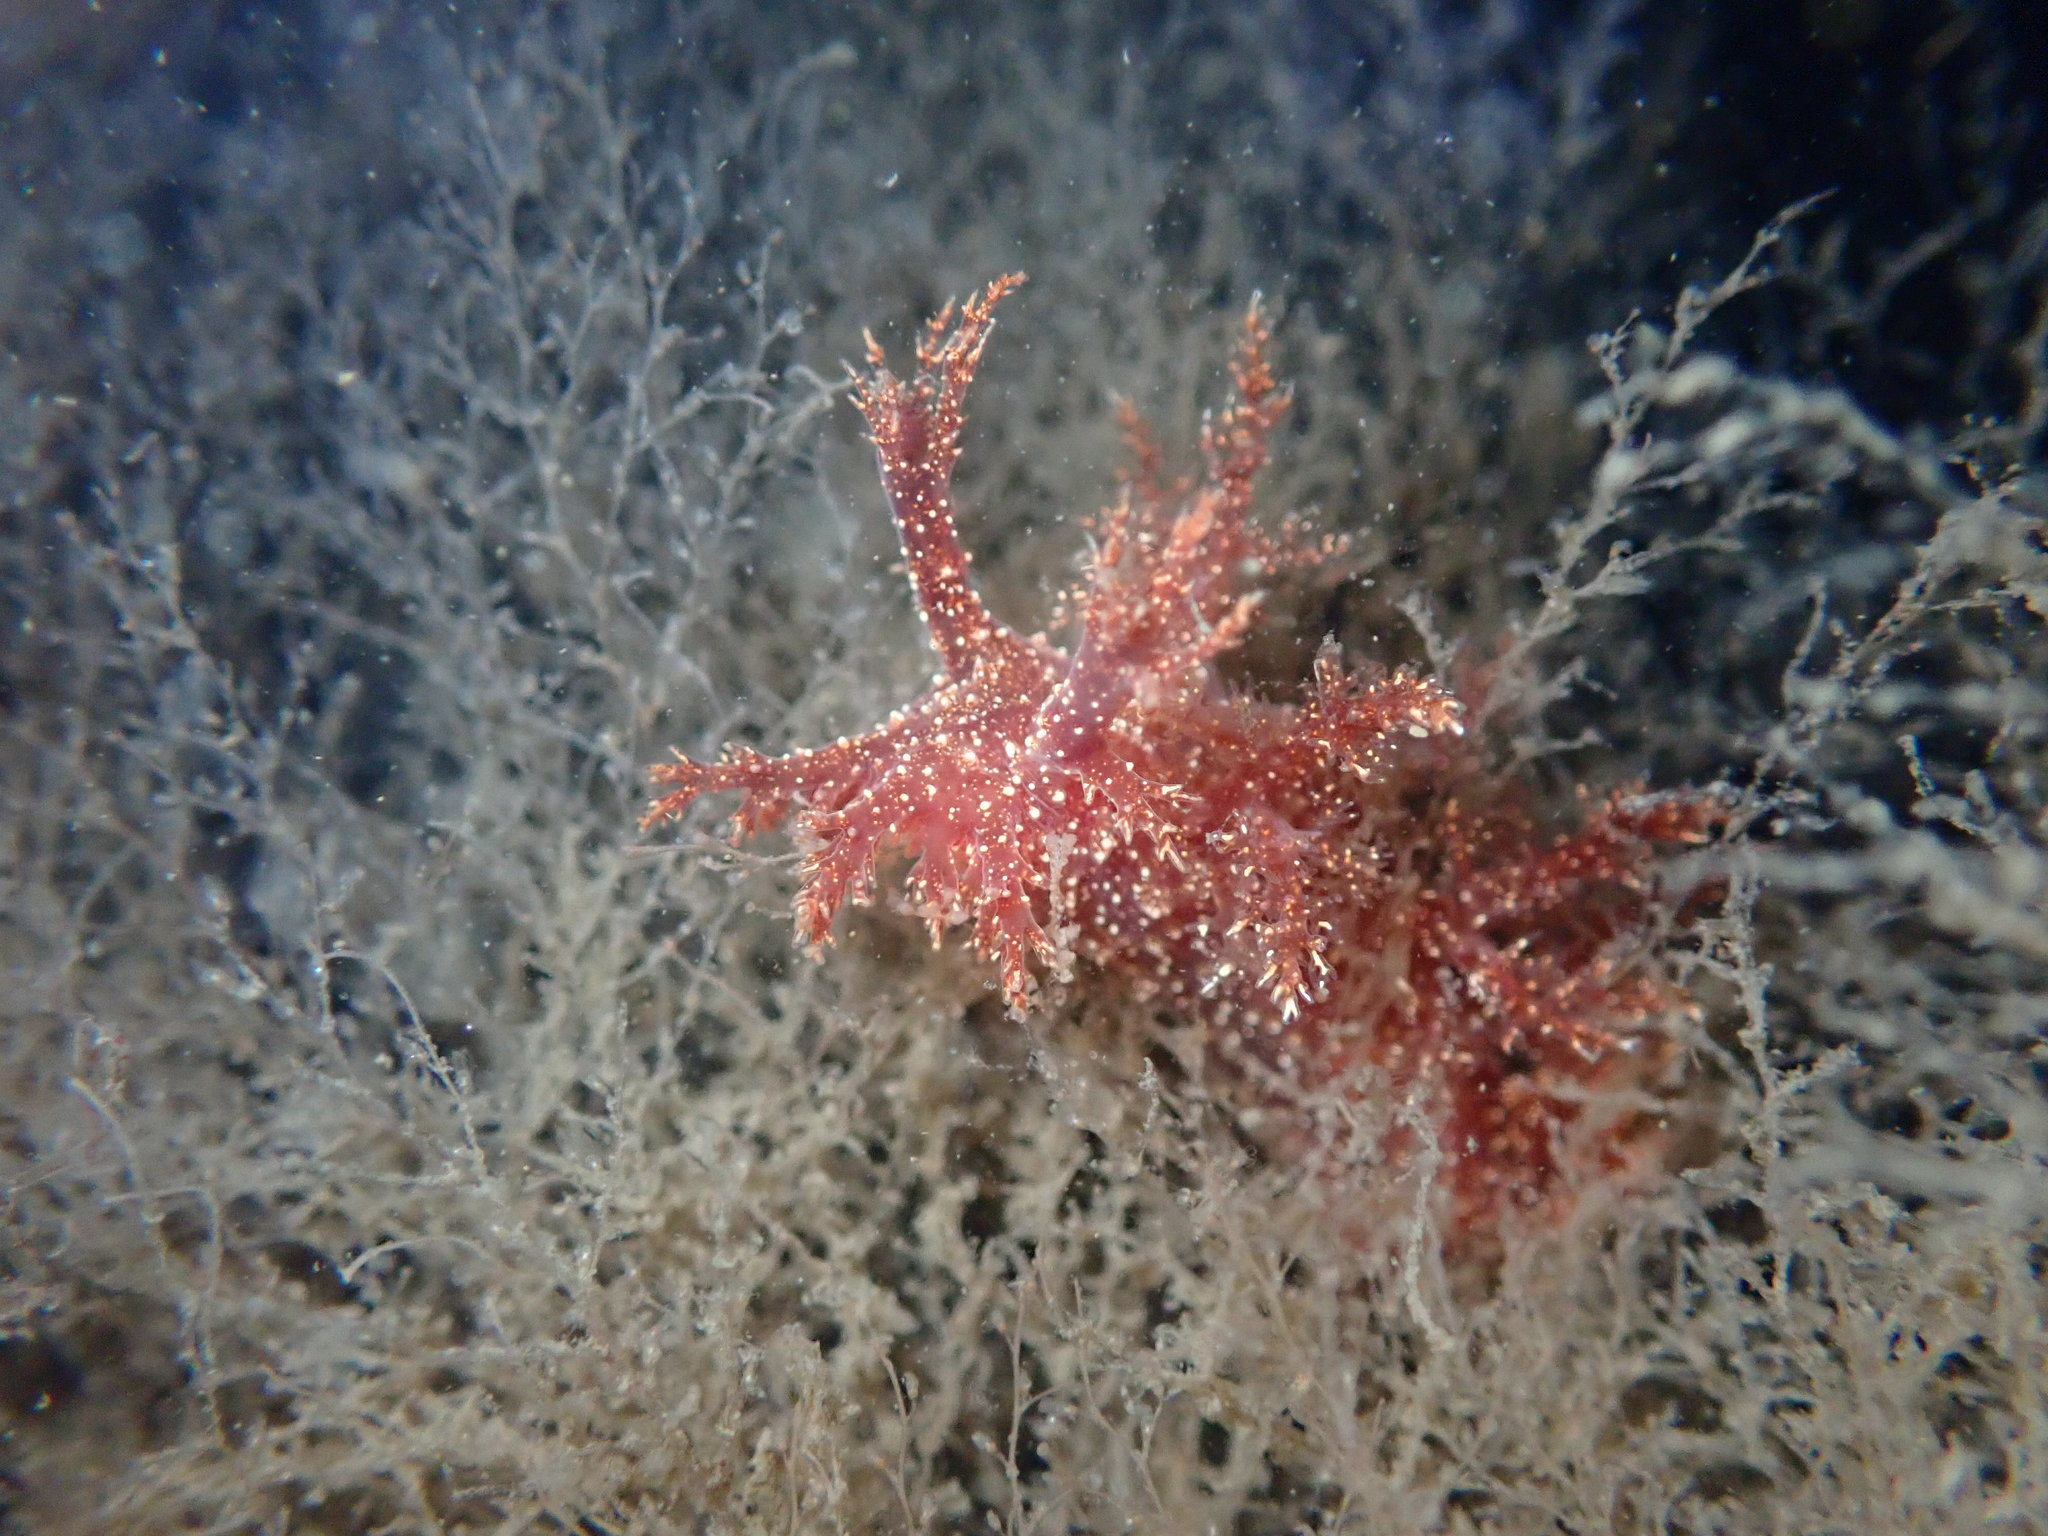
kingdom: Animalia
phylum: Mollusca
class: Gastropoda
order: Nudibranchia
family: Dendronotidae
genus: Dendronotus
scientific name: Dendronotus venustus
